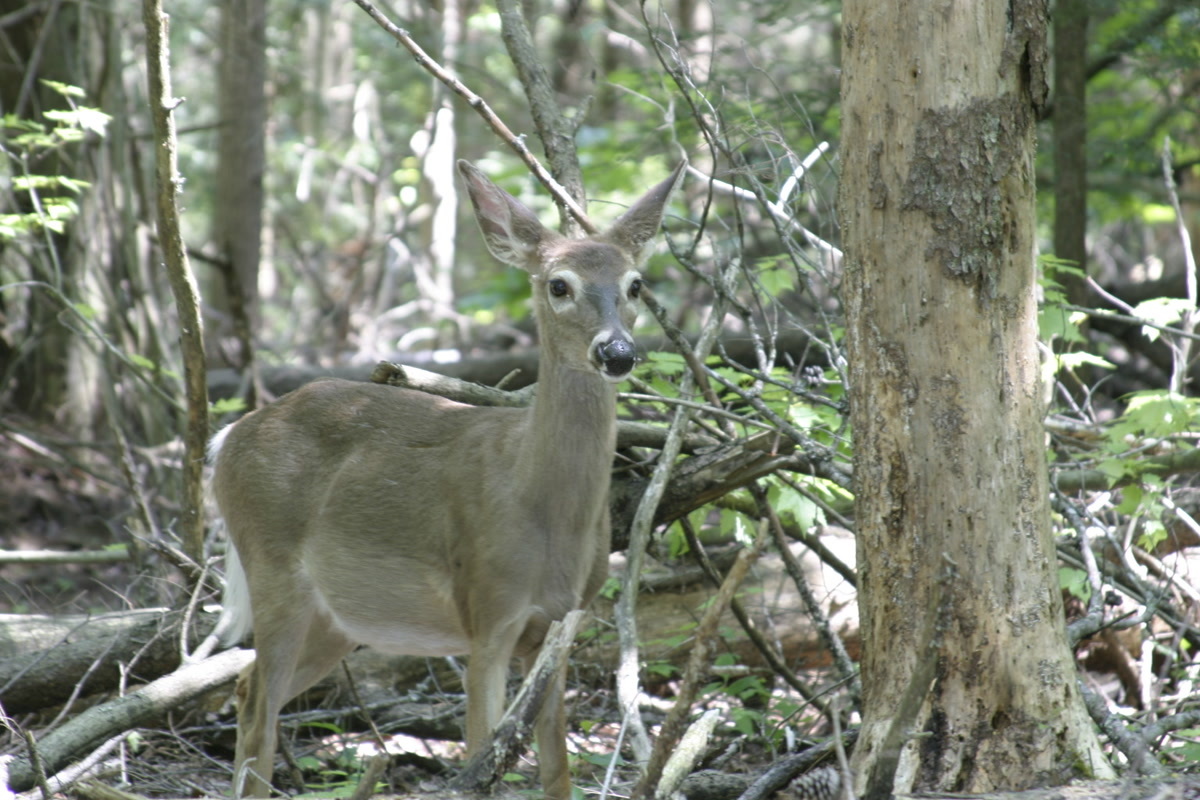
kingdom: Animalia
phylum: Chordata
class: Mammalia
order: Artiodactyla
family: Cervidae
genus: Odocoileus
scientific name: Odocoileus virginianus
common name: White-tailed deer
